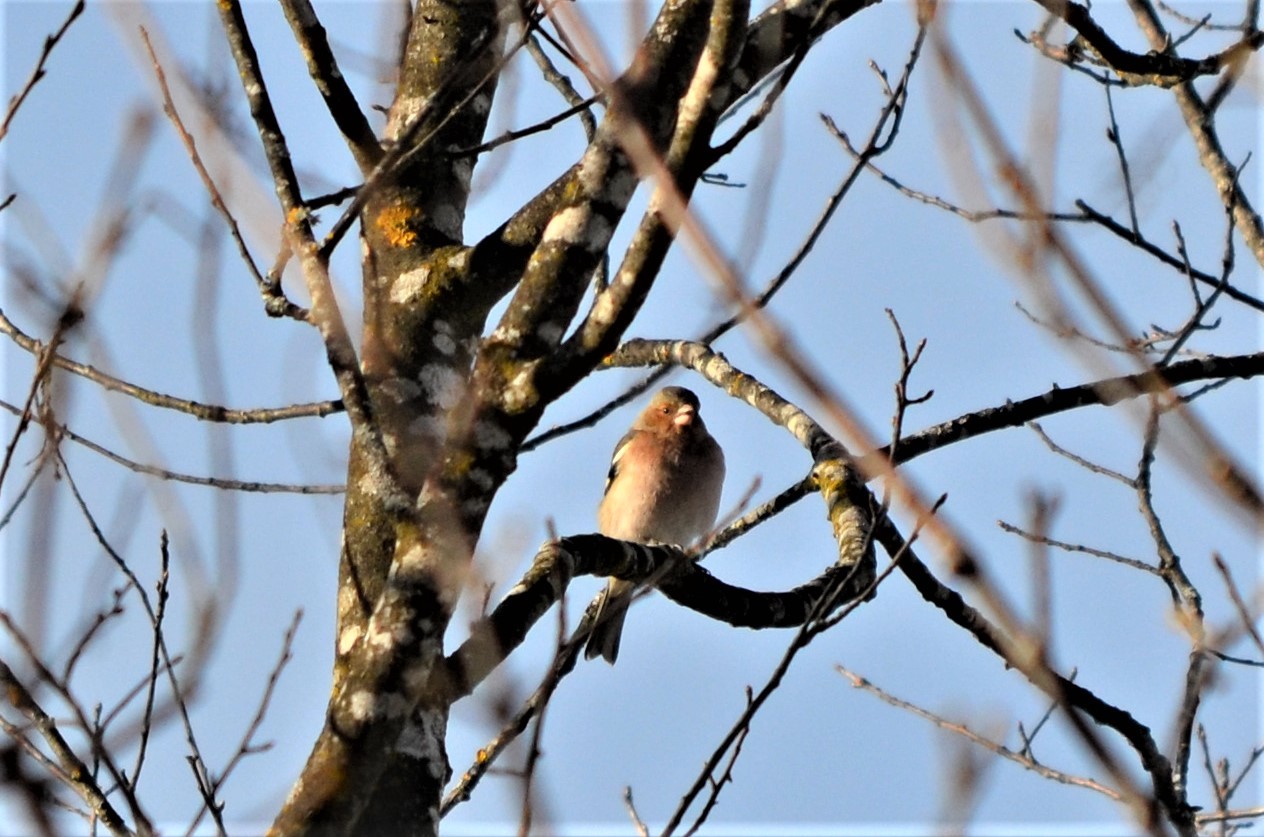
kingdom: Animalia
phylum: Chordata
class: Aves
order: Passeriformes
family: Fringillidae
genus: Fringilla
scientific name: Fringilla coelebs
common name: Common chaffinch
